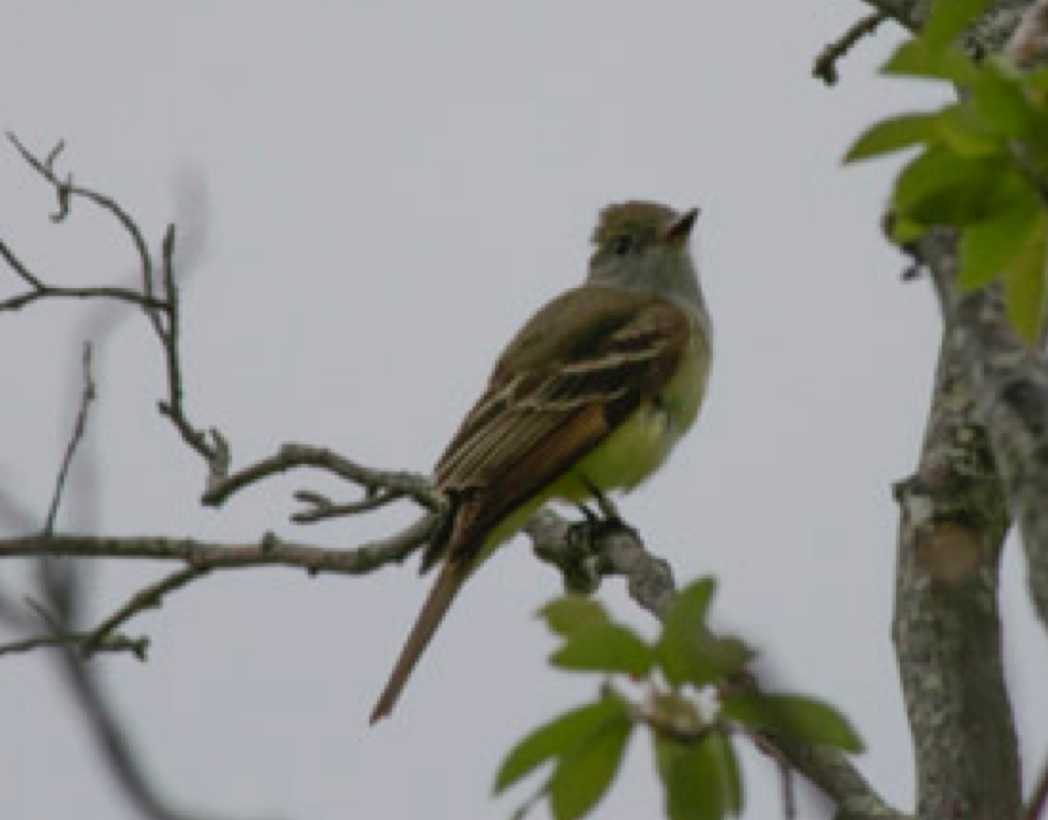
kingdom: Animalia
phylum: Chordata
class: Aves
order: Passeriformes
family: Tyrannidae
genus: Myiarchus
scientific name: Myiarchus crinitus
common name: Great crested flycatcher
